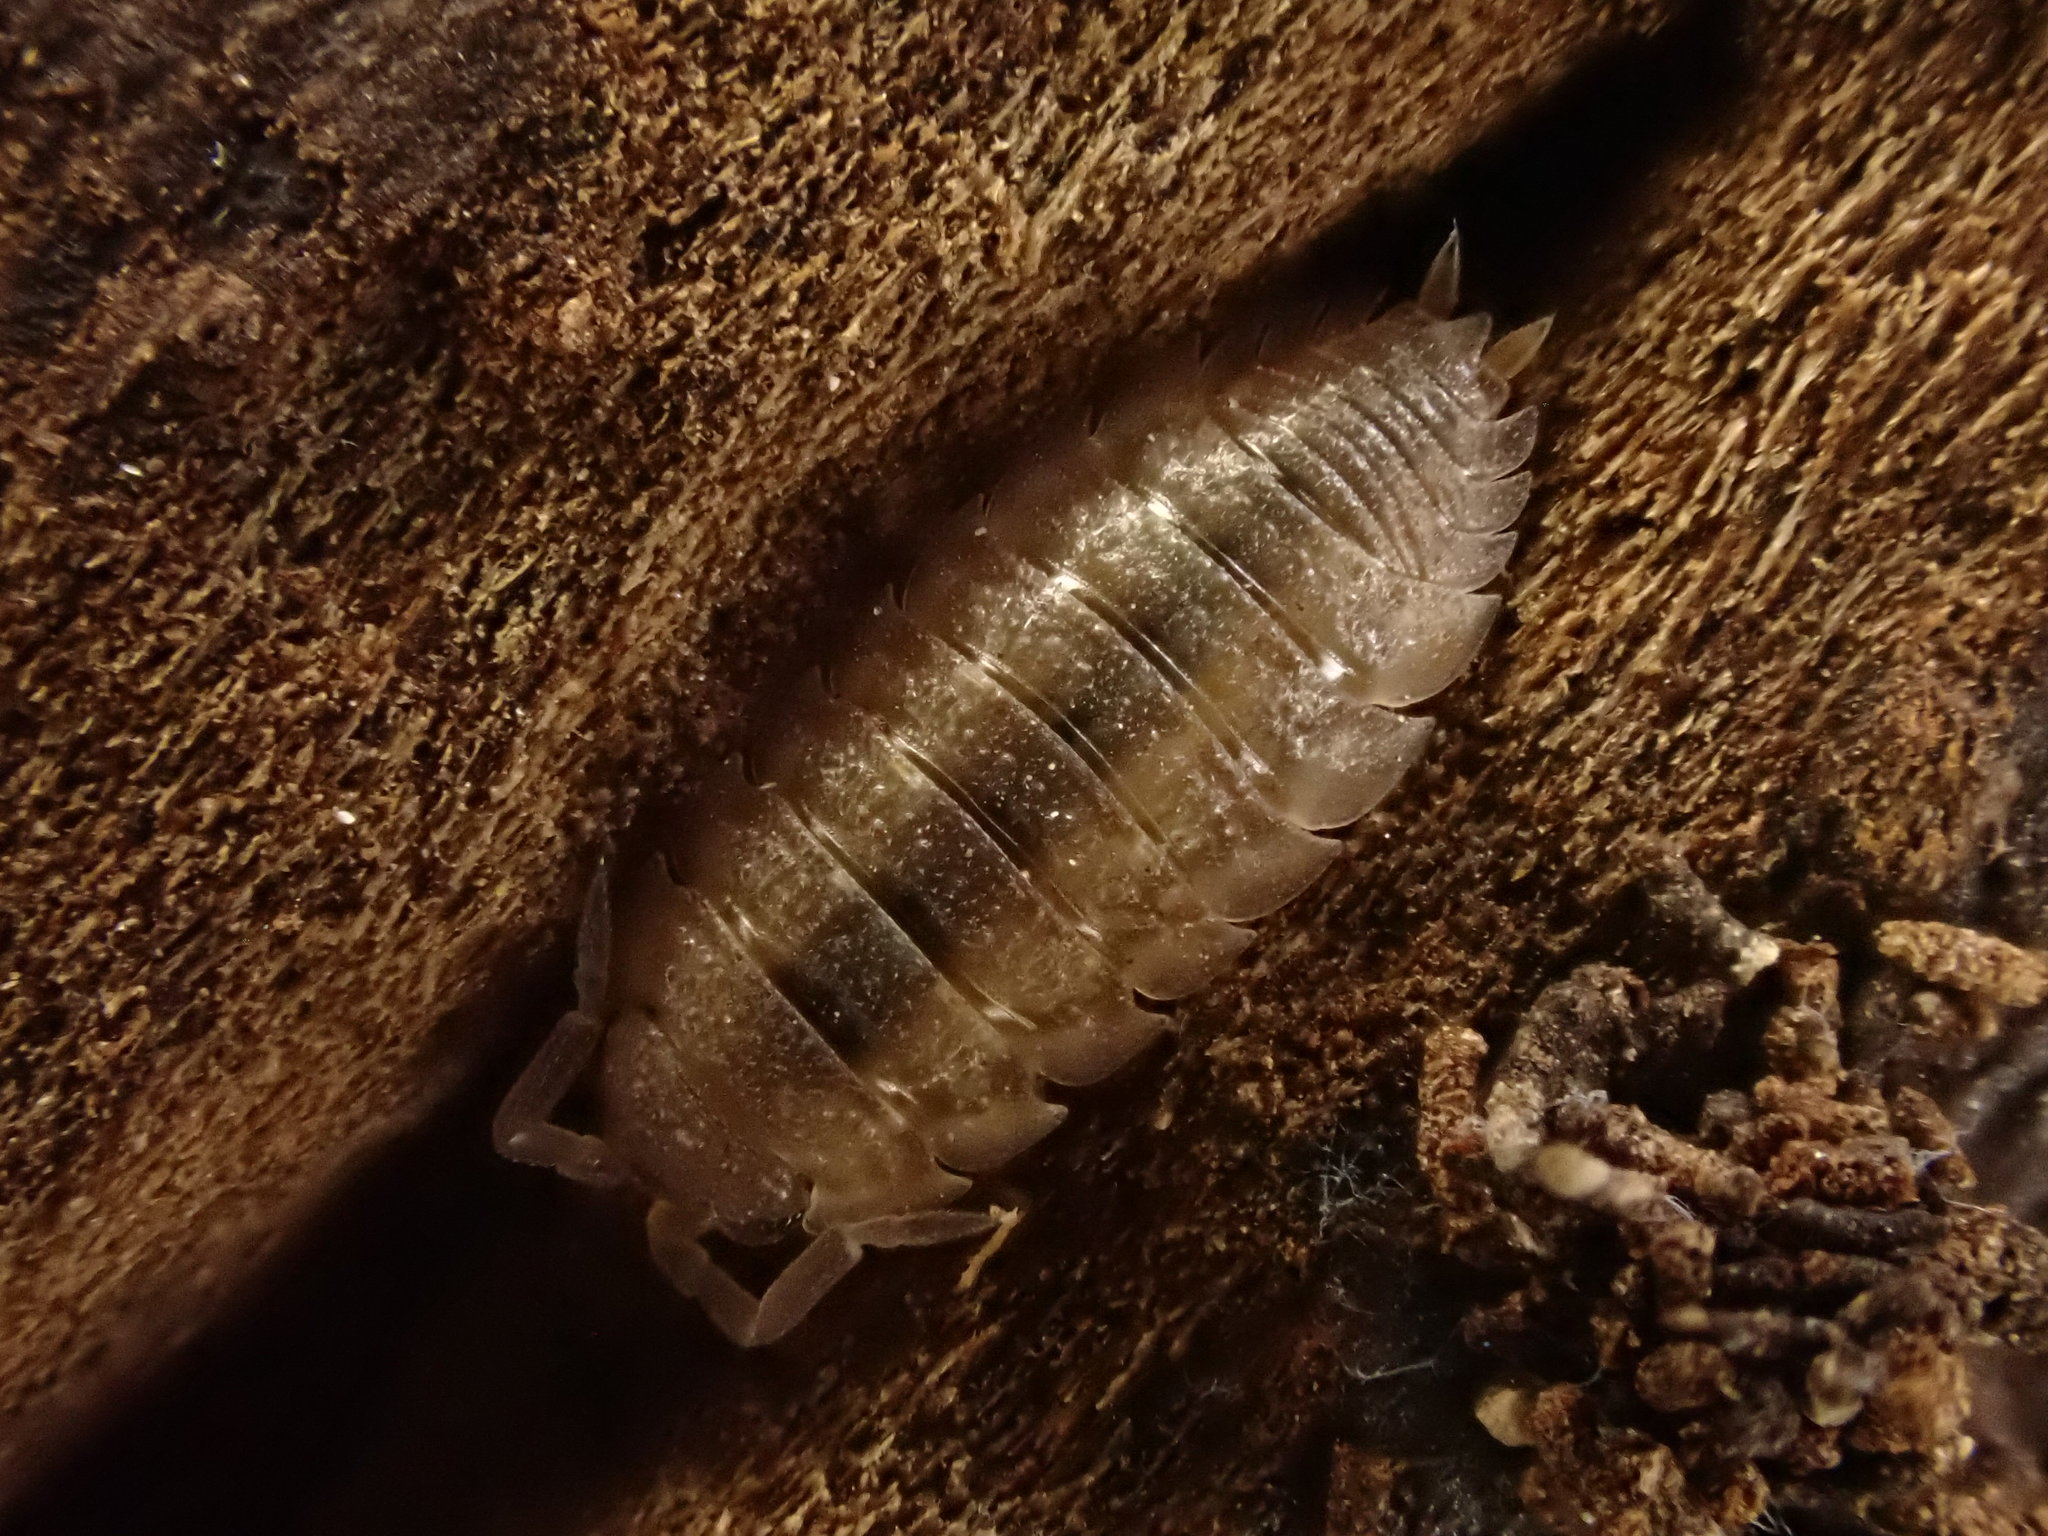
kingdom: Animalia
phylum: Arthropoda
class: Malacostraca
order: Isopoda
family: Porcellionidae
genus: Porcellio
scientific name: Porcellio scaber
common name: Common rough woodlouse
